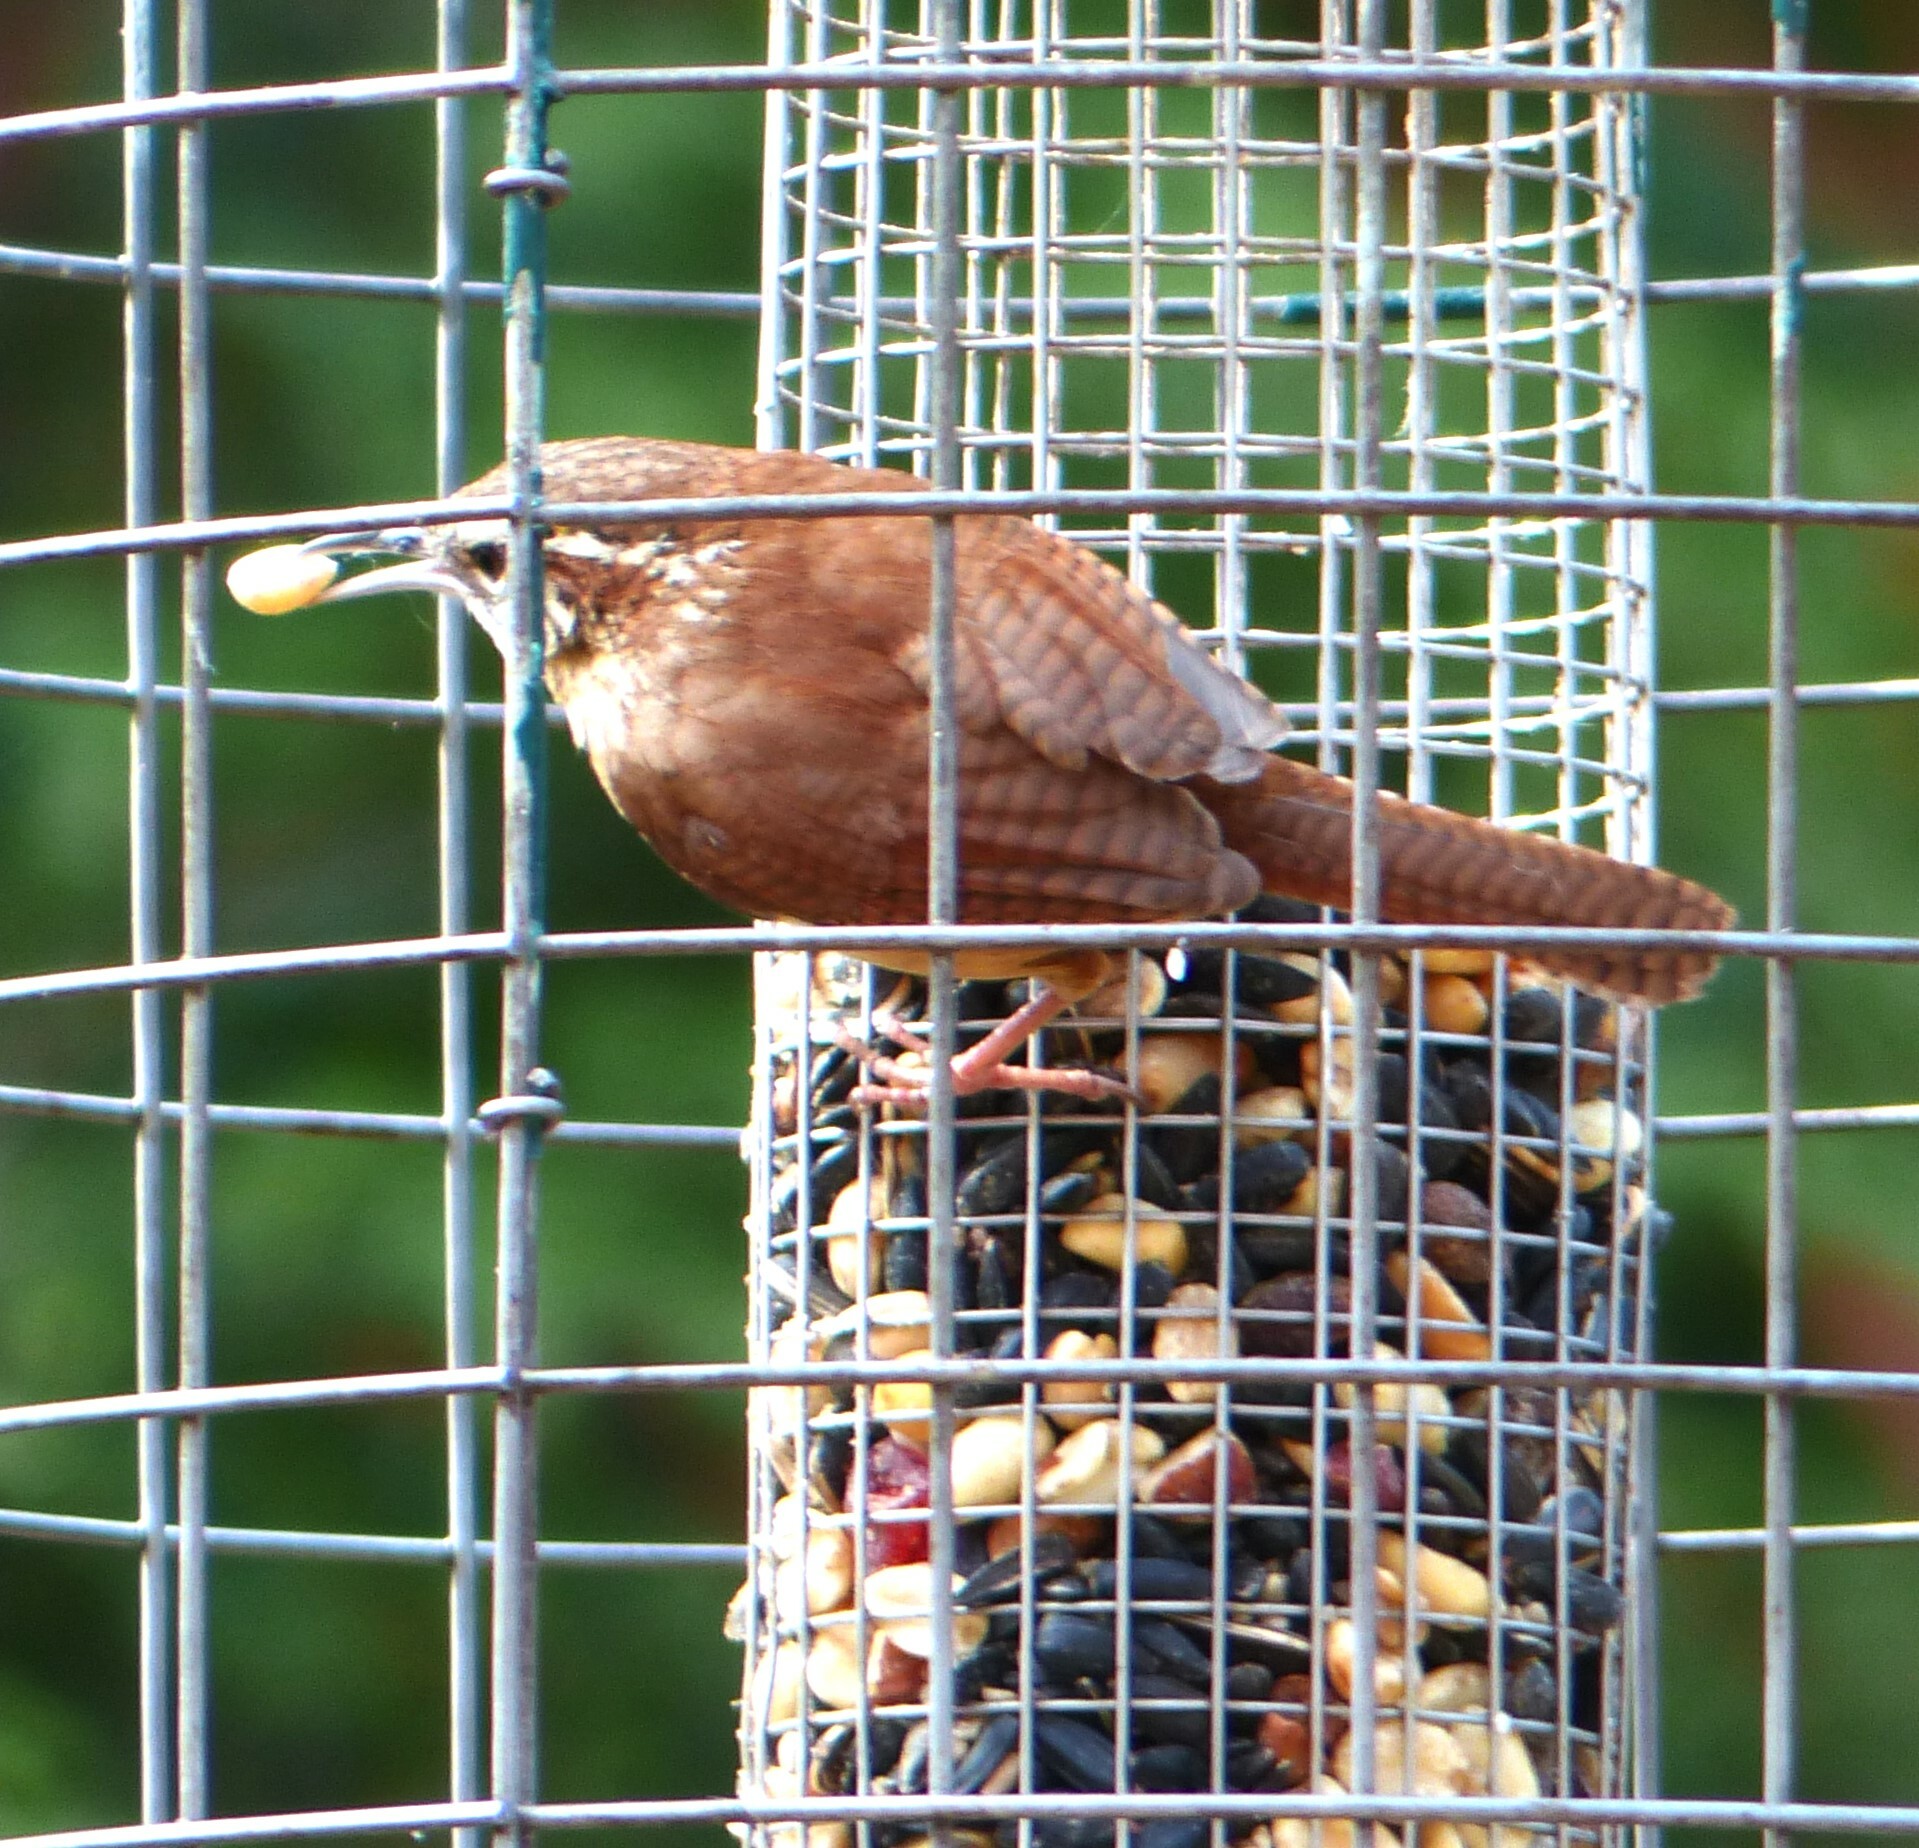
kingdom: Animalia
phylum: Chordata
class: Aves
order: Passeriformes
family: Troglodytidae
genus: Thryothorus
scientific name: Thryothorus ludovicianus
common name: Carolina wren
